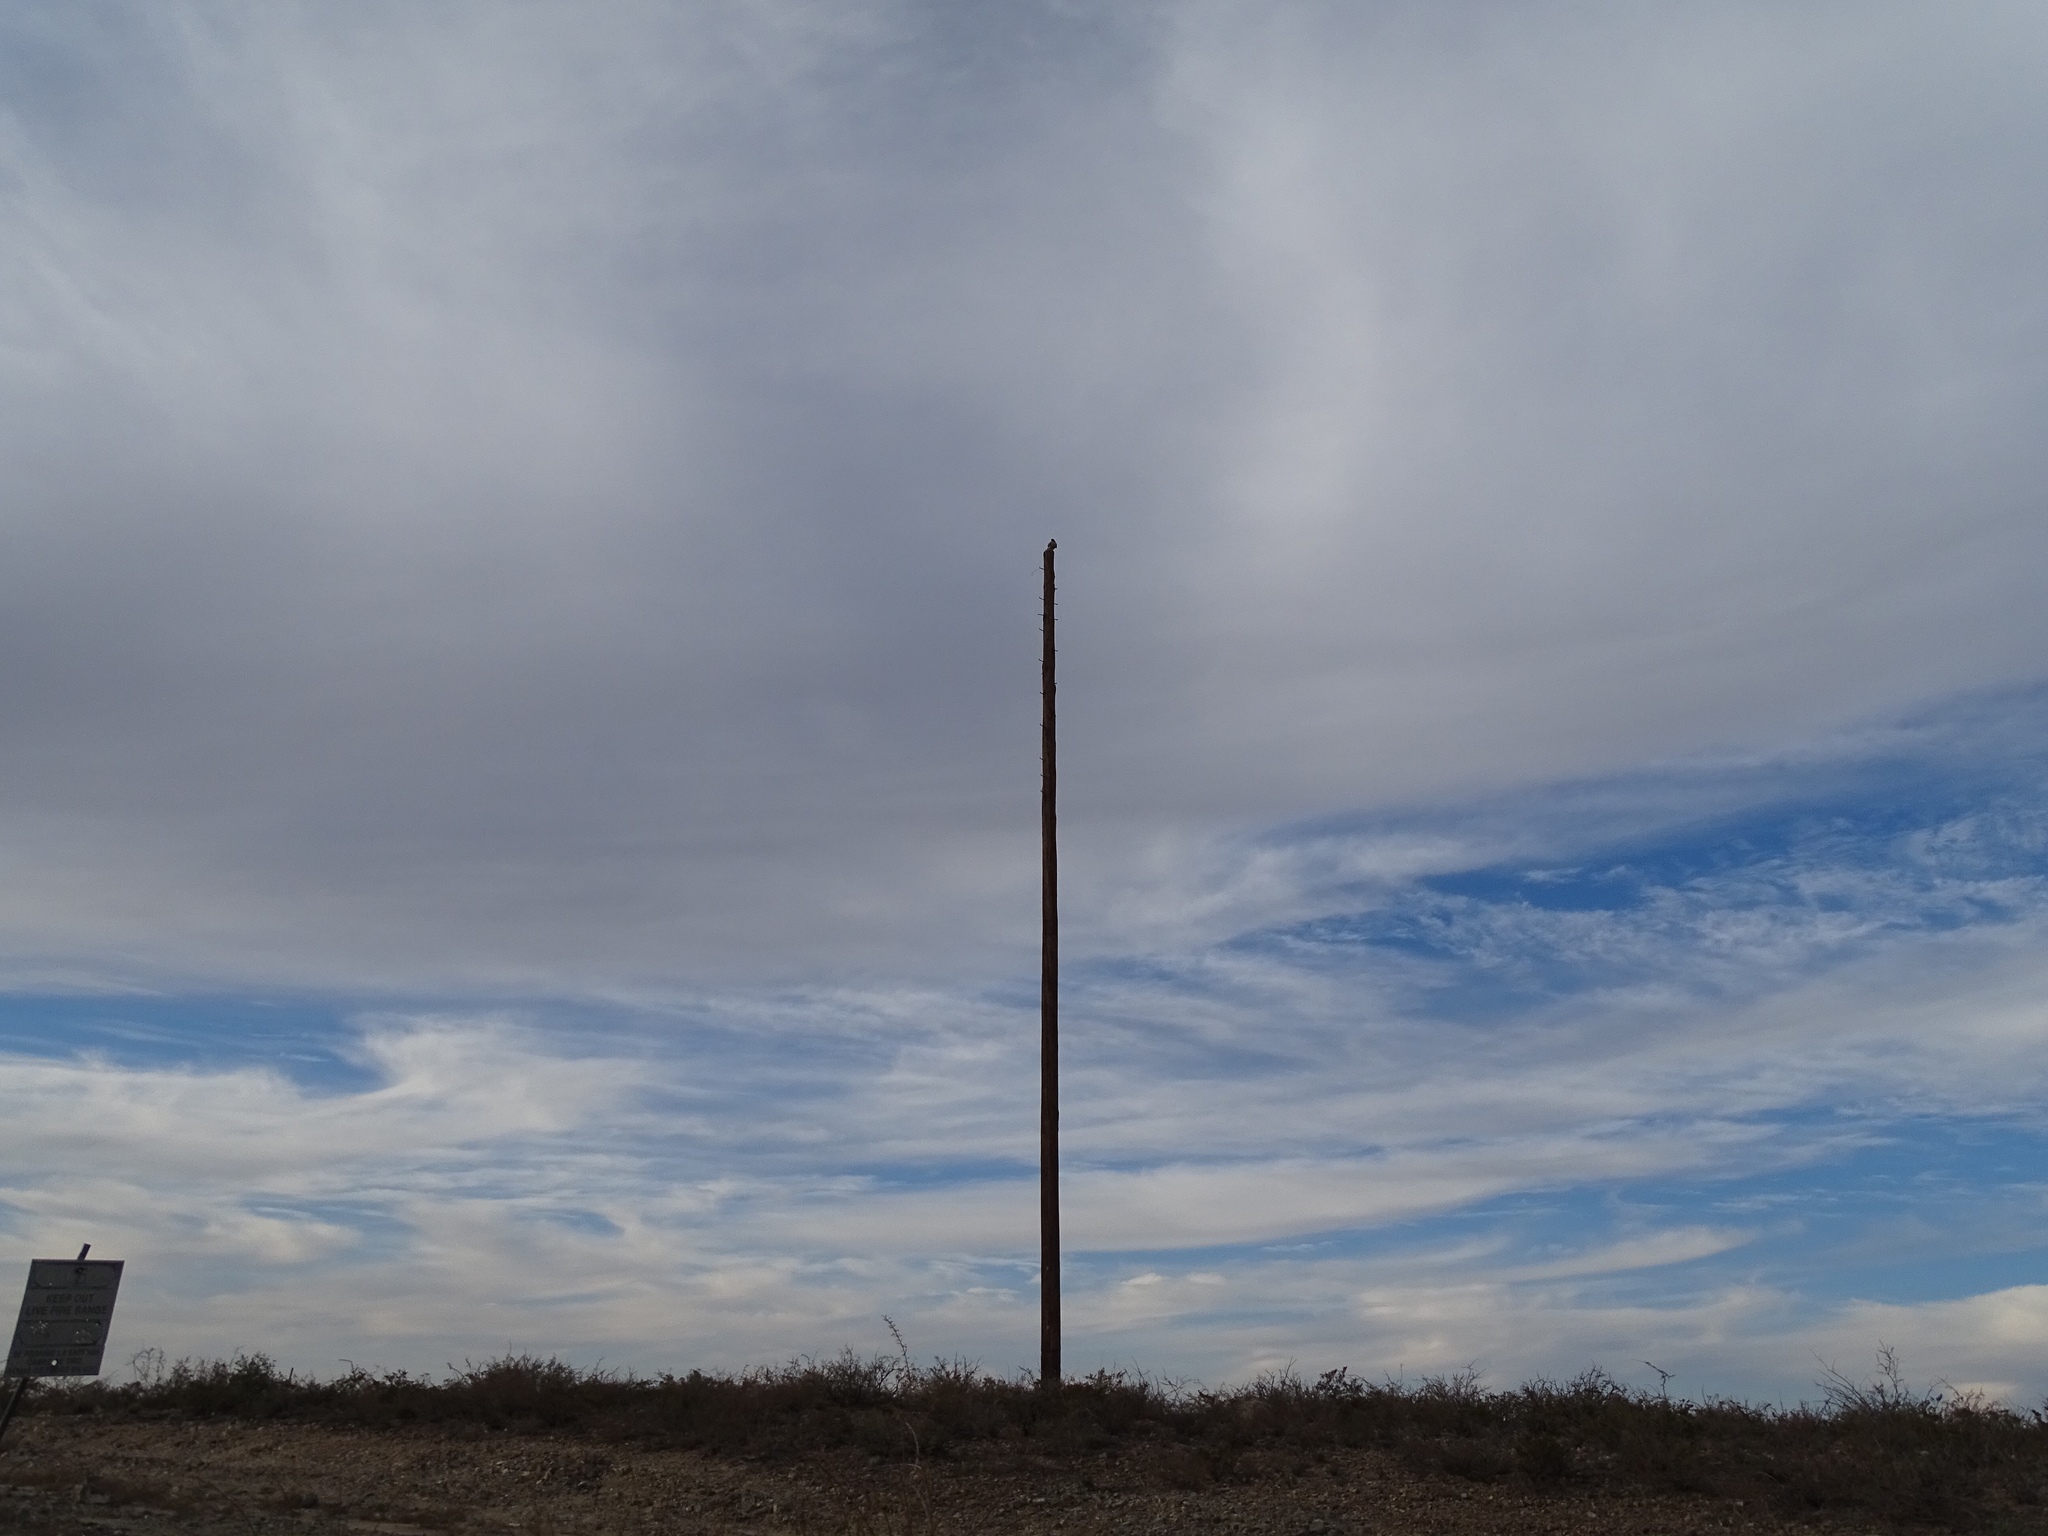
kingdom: Animalia
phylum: Chordata
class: Aves
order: Accipitriformes
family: Accipitridae
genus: Buteo
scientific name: Buteo jamaicensis
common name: Red-tailed hawk
